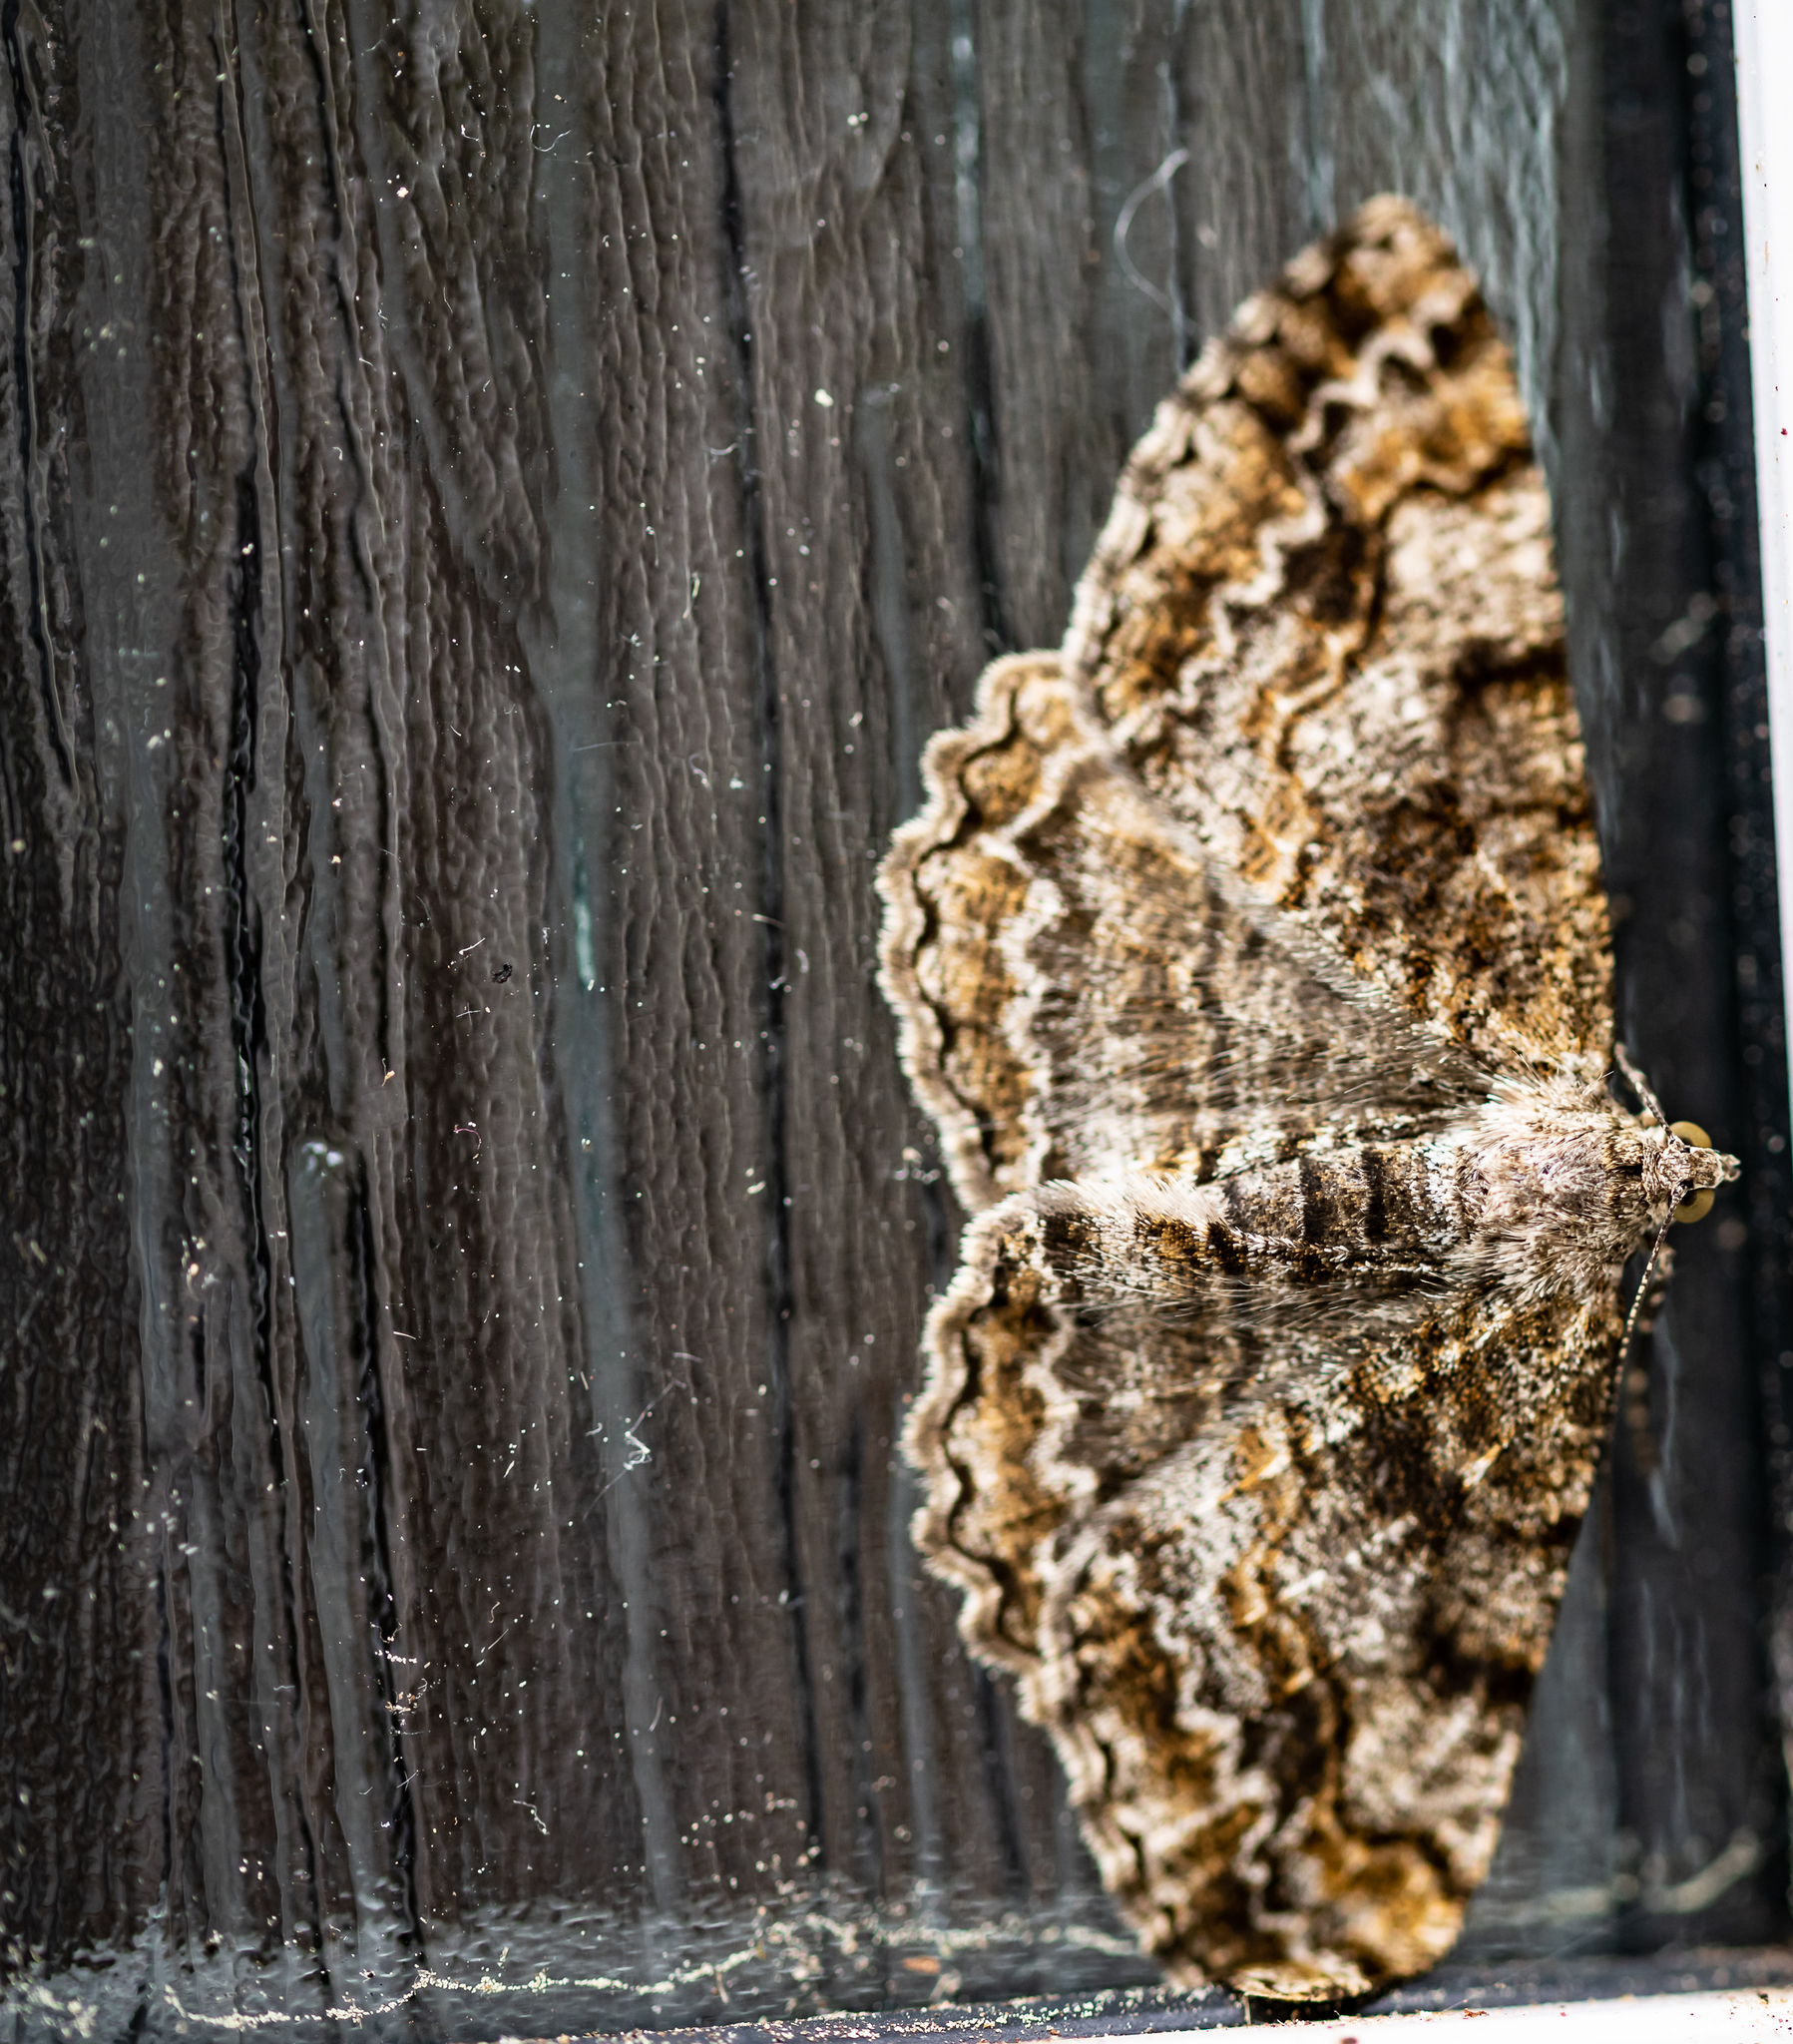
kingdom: Animalia
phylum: Arthropoda
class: Insecta
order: Lepidoptera
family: Geometridae
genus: Alcis
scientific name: Alcis repandata
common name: Mottled beauty
